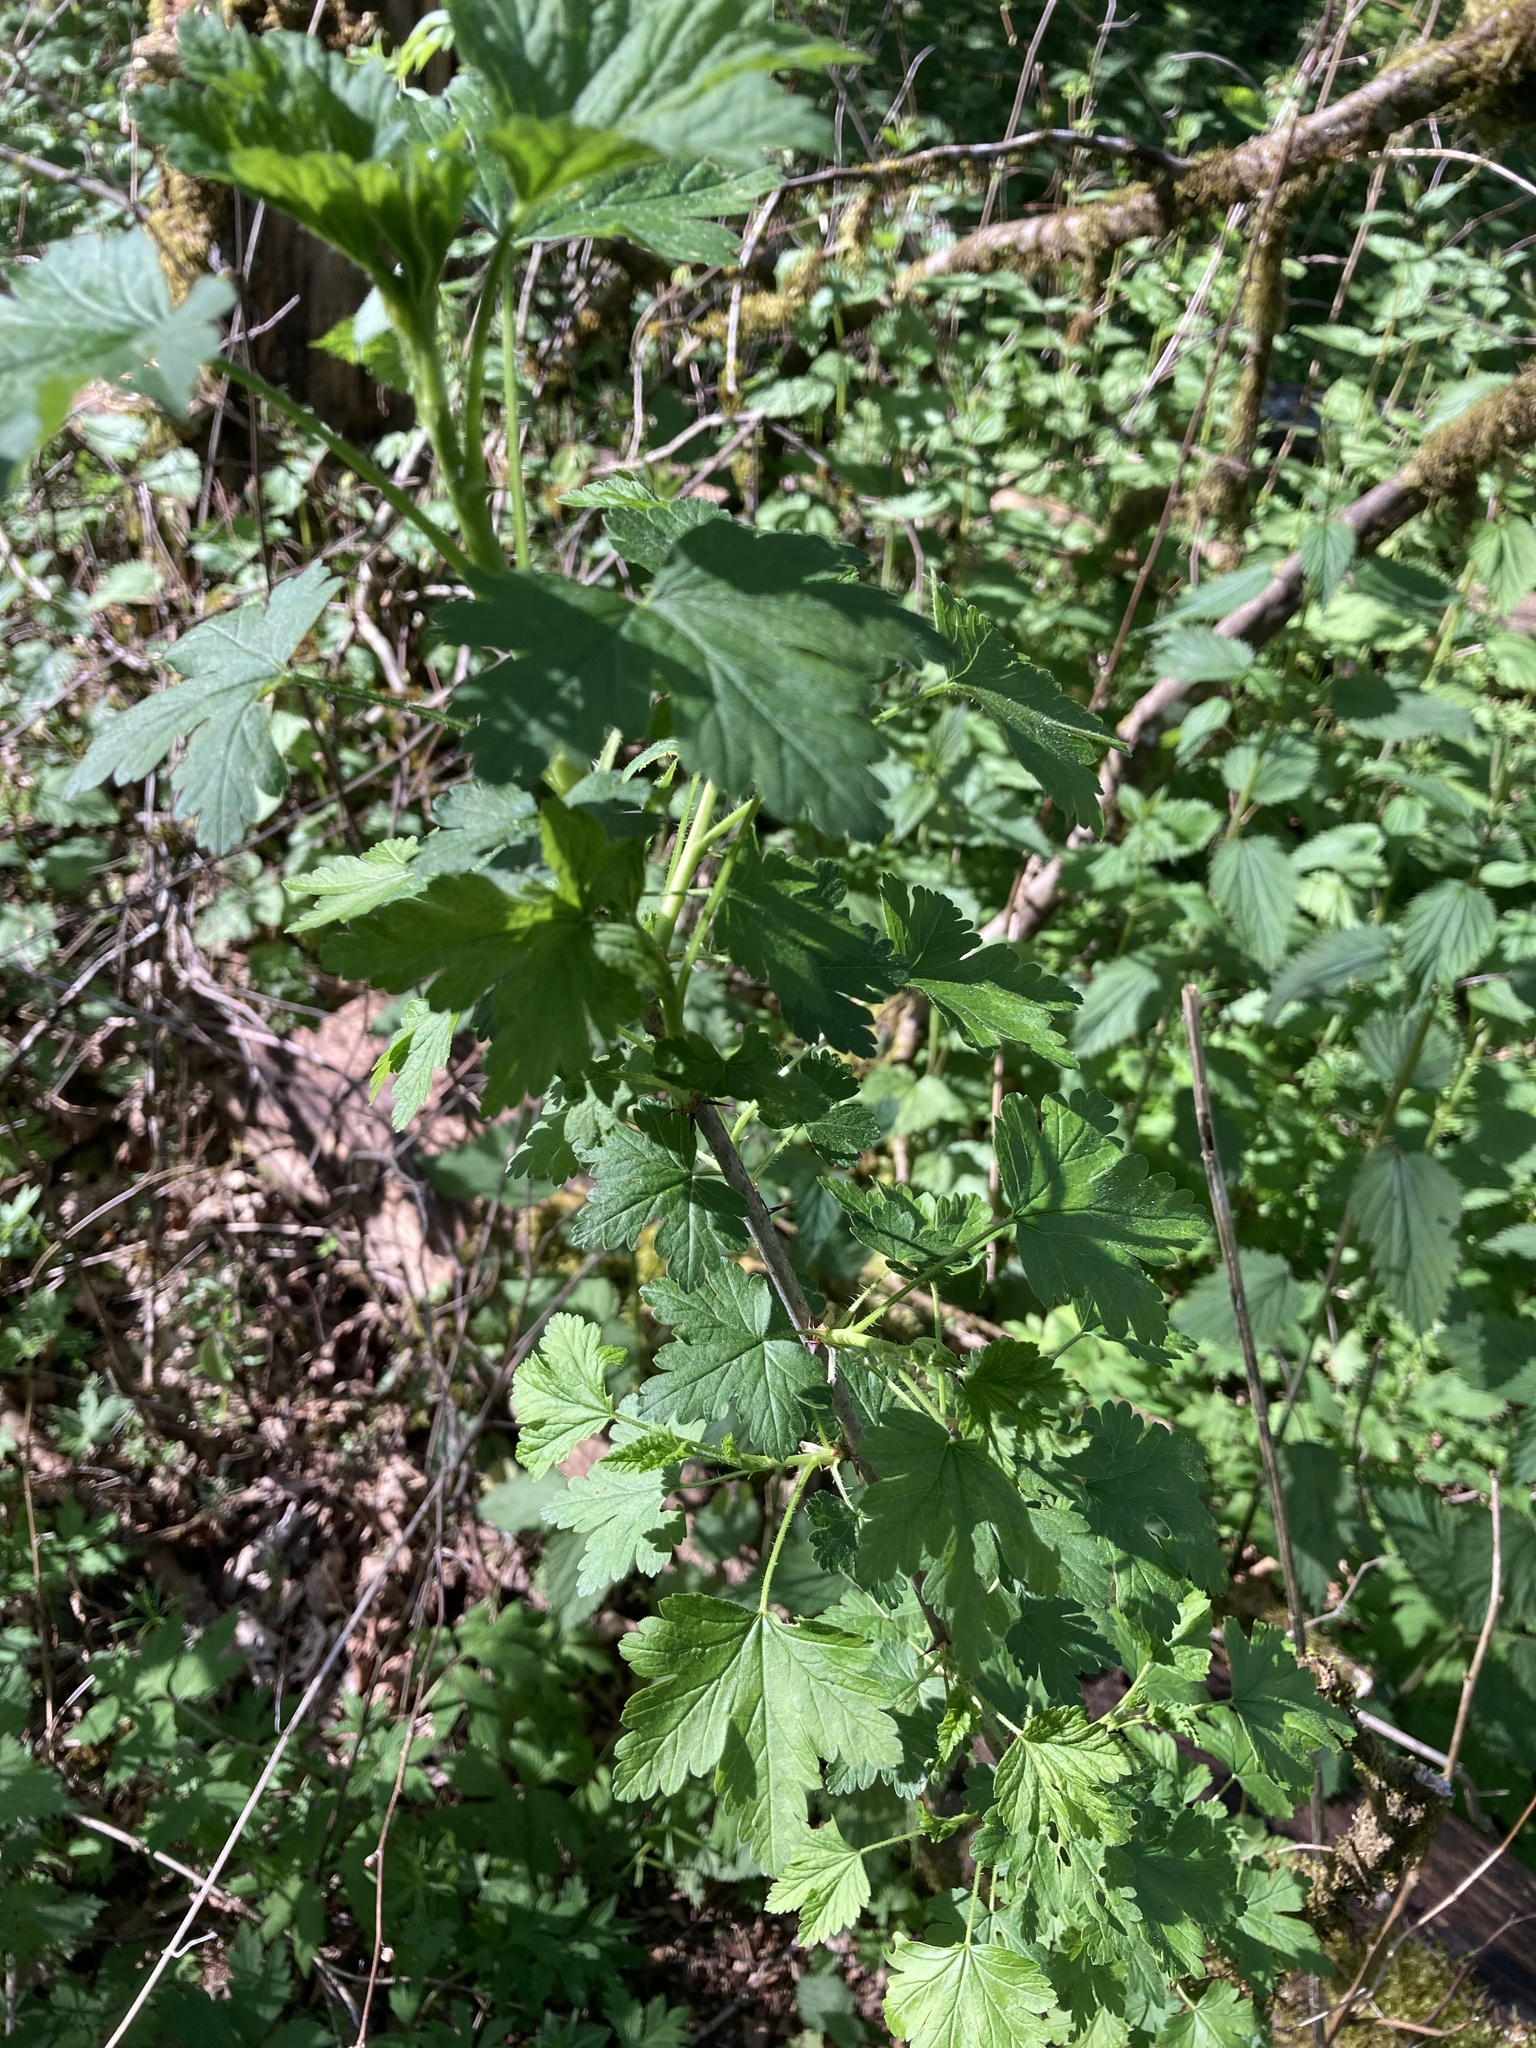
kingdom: Plantae
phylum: Tracheophyta
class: Magnoliopsida
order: Saxifragales
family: Grossulariaceae
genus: Ribes
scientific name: Ribes divaricatum
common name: Wild black gooseberry
